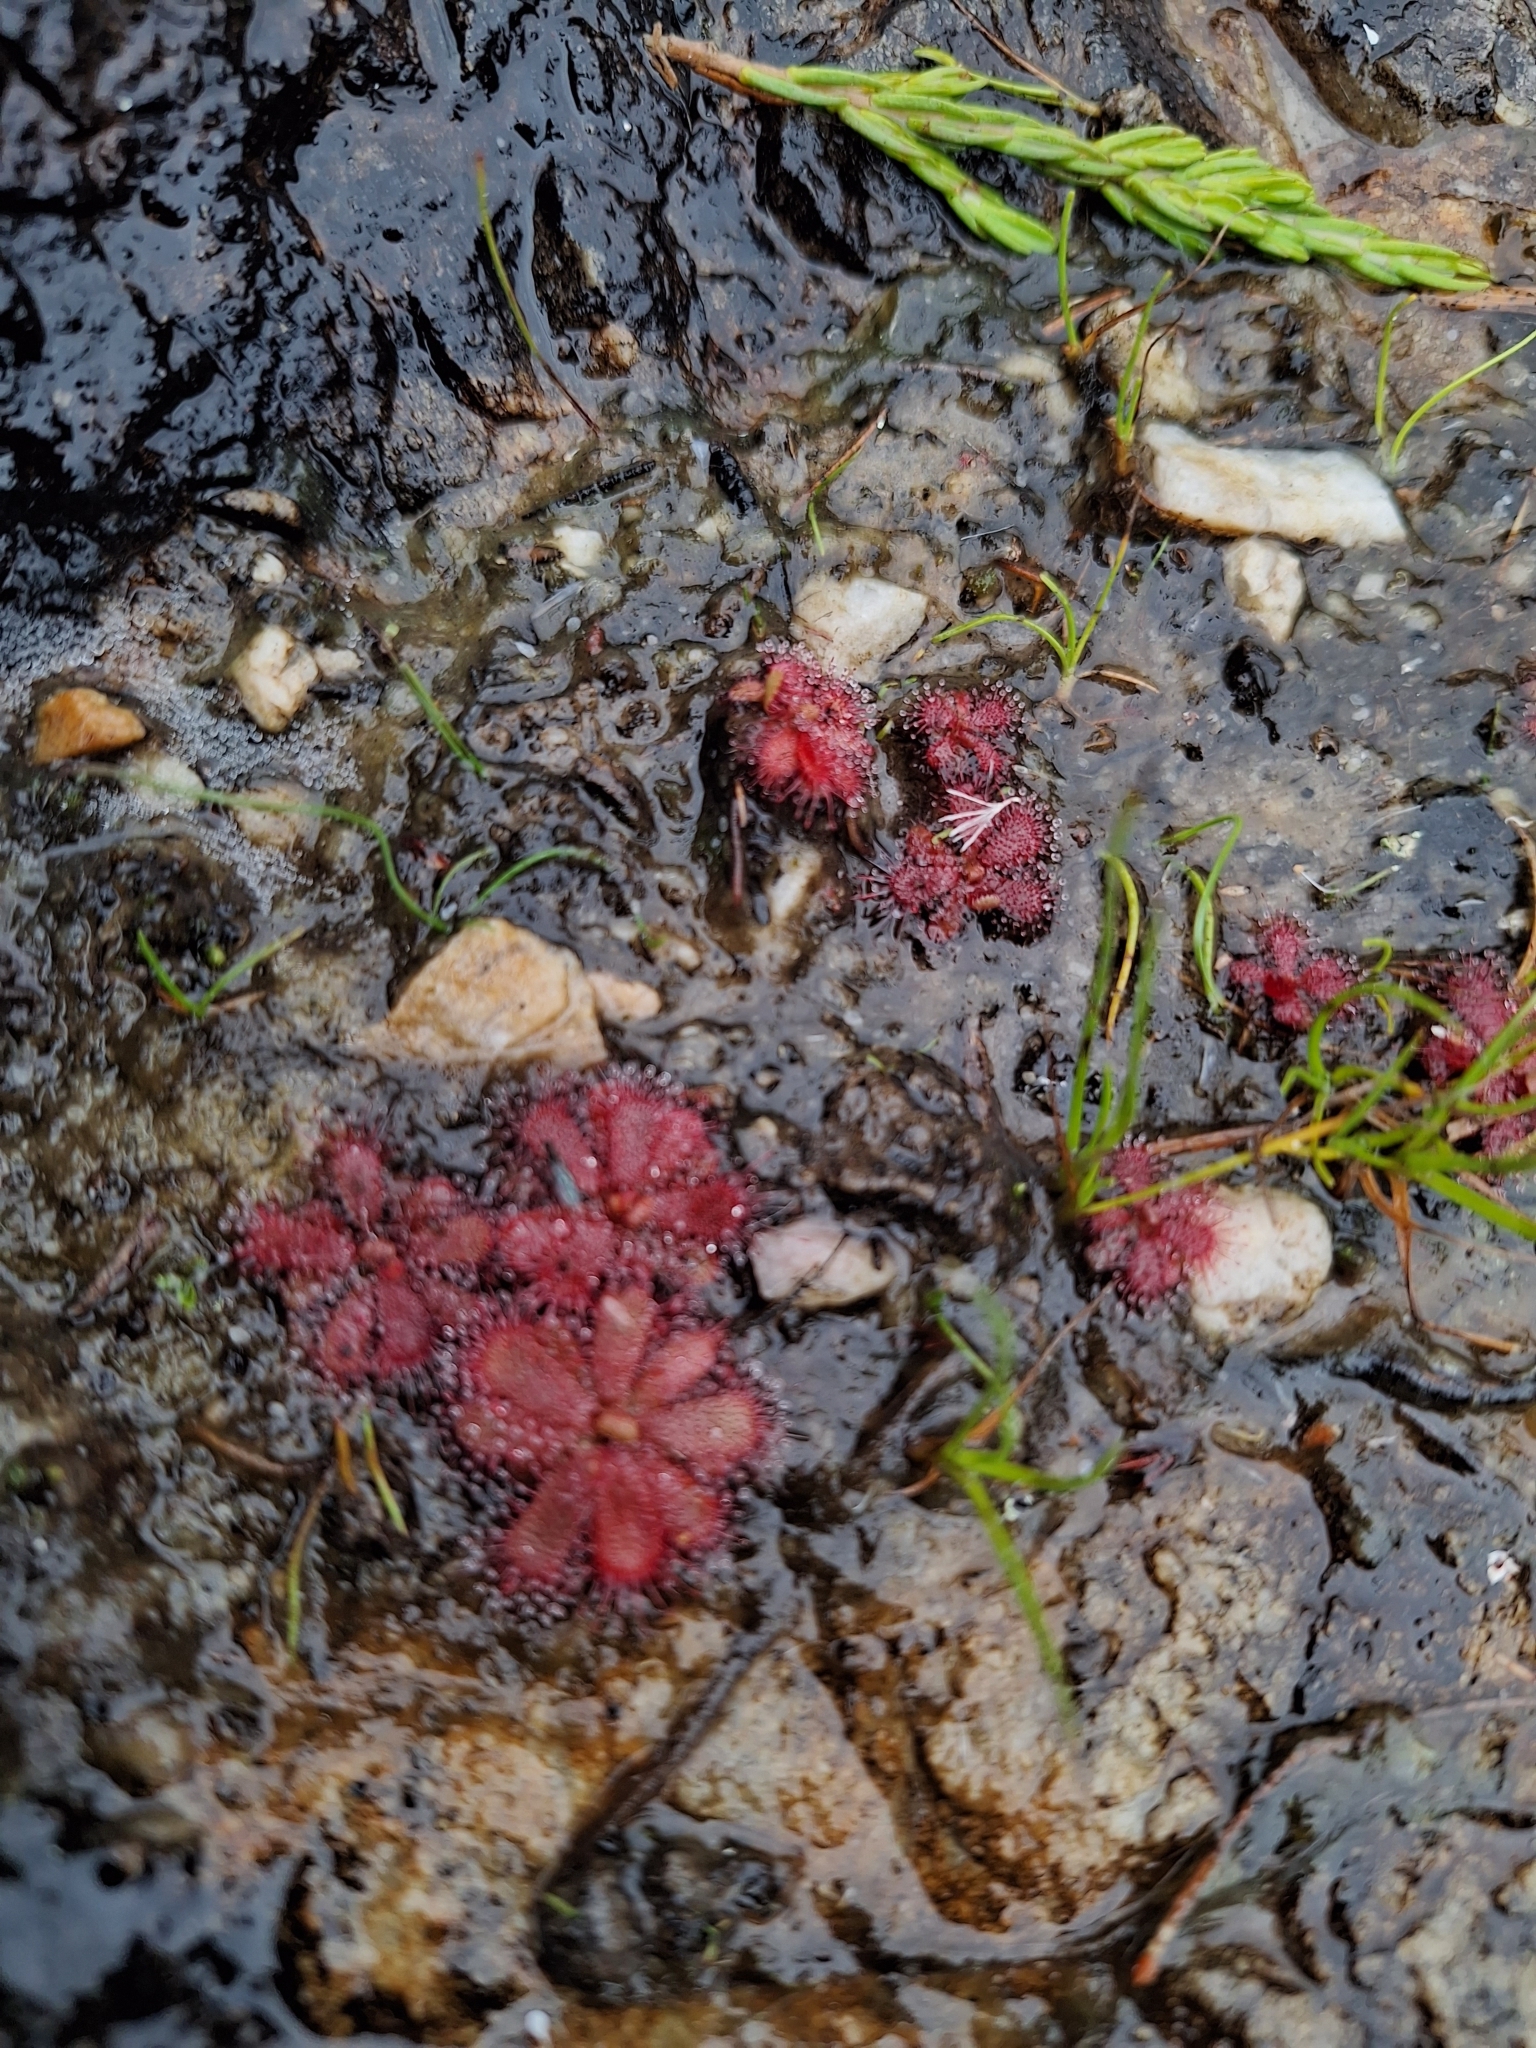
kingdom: Plantae
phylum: Tracheophyta
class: Magnoliopsida
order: Caryophyllales
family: Droseraceae
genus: Drosera
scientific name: Drosera trinervia
